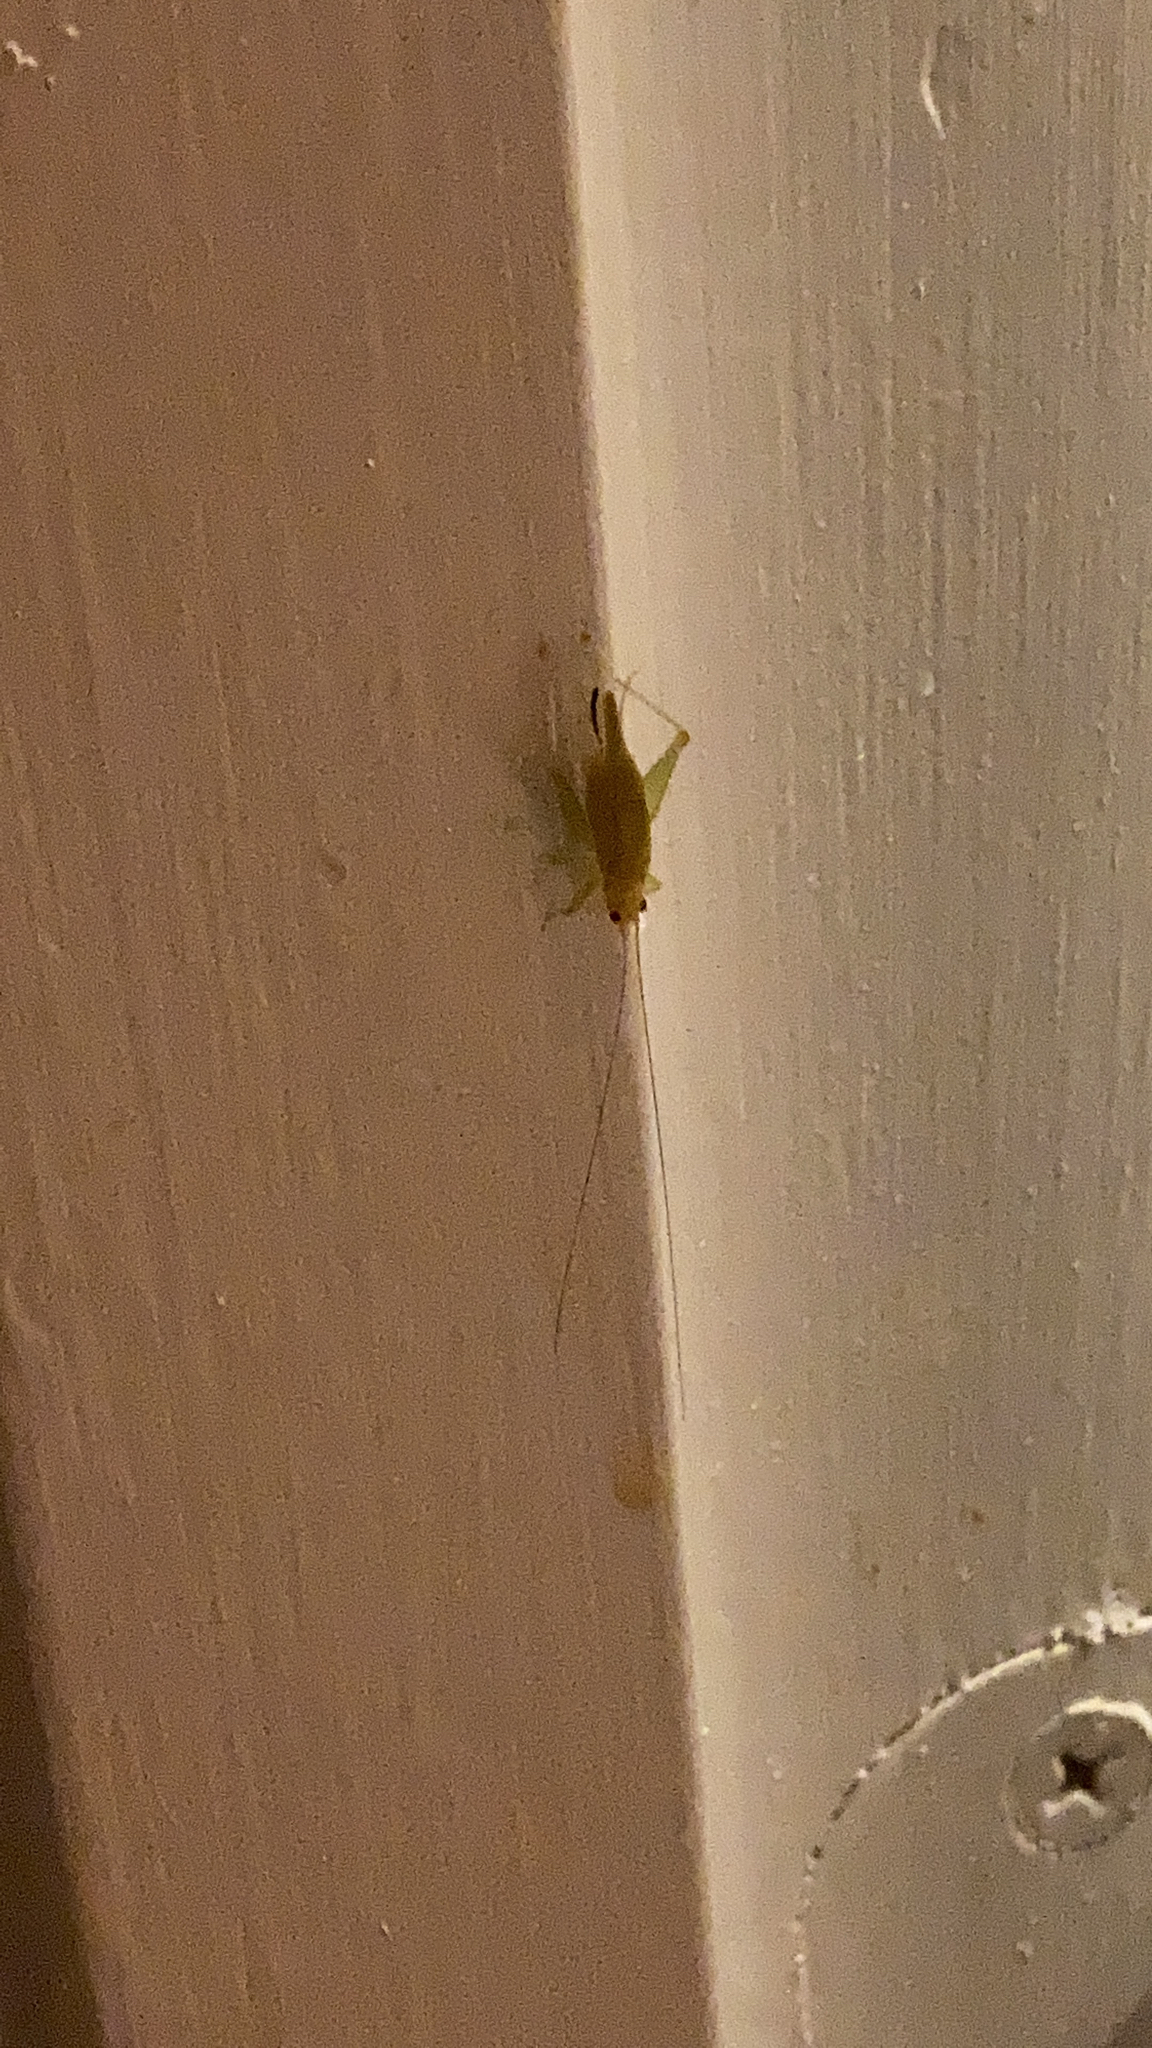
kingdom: Animalia
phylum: Arthropoda
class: Insecta
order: Orthoptera
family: Trigonidiidae
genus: Cyrtoxipha
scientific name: Cyrtoxipha columbiana
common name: Columbian trig
